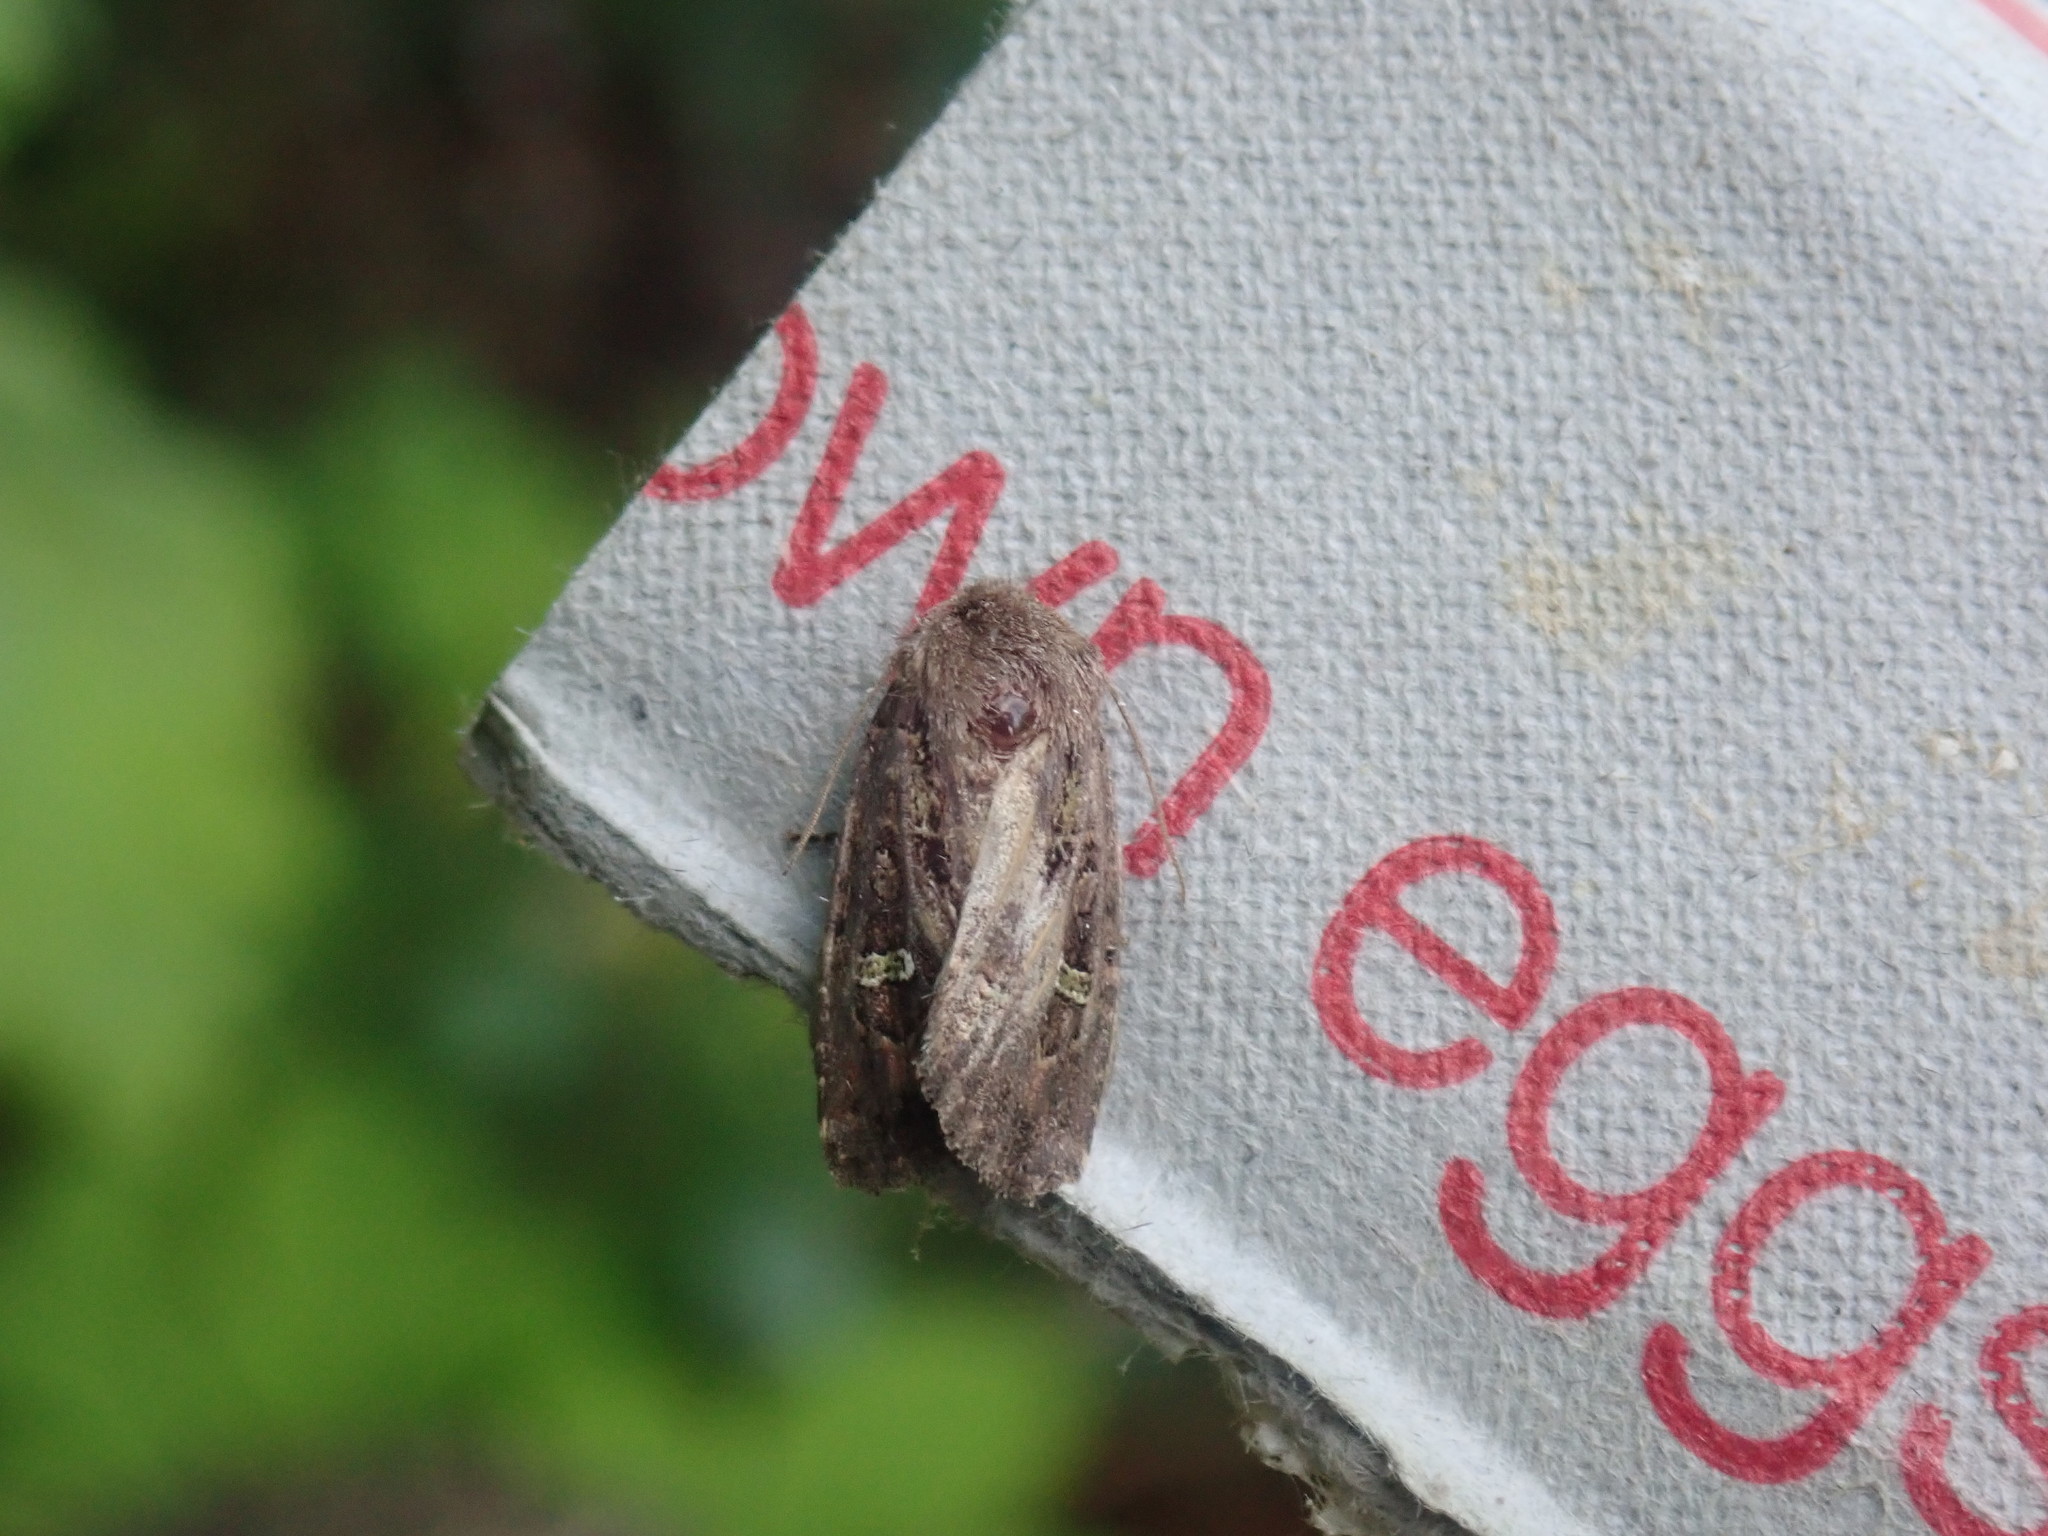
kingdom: Animalia
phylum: Arthropoda
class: Insecta
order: Lepidoptera
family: Noctuidae
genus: Lacinipolia
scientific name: Lacinipolia renigera
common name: Kidney-spotted minor
